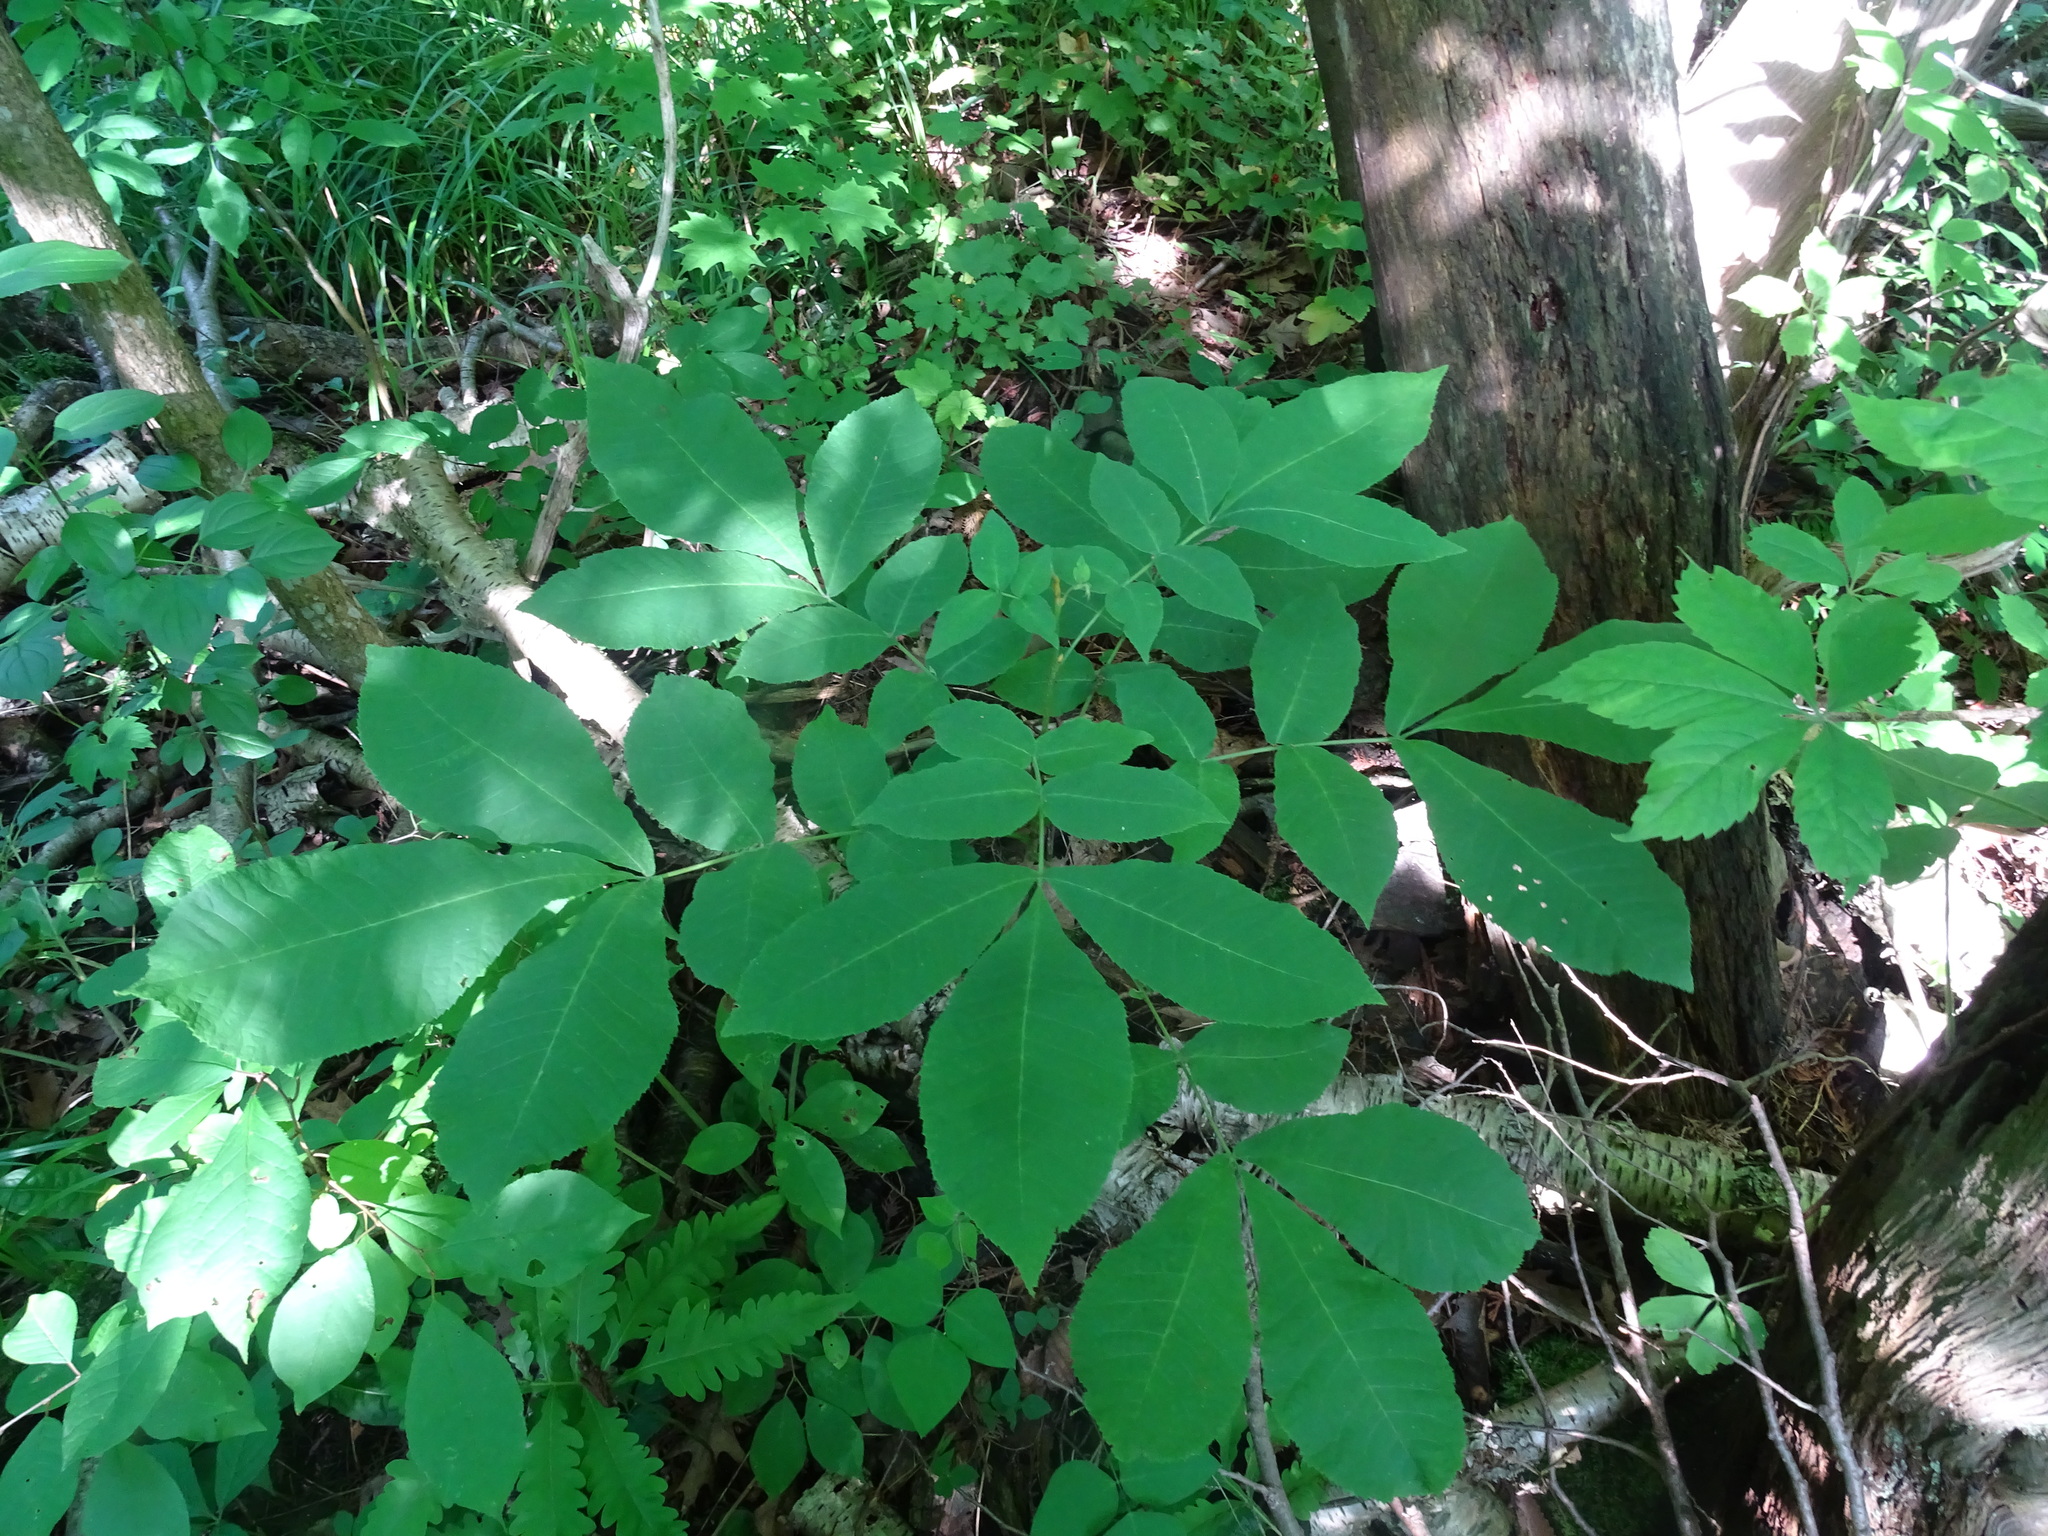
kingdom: Plantae
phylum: Tracheophyta
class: Magnoliopsida
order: Fagales
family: Juglandaceae
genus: Carya
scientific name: Carya cordiformis
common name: Bitternut hickory
